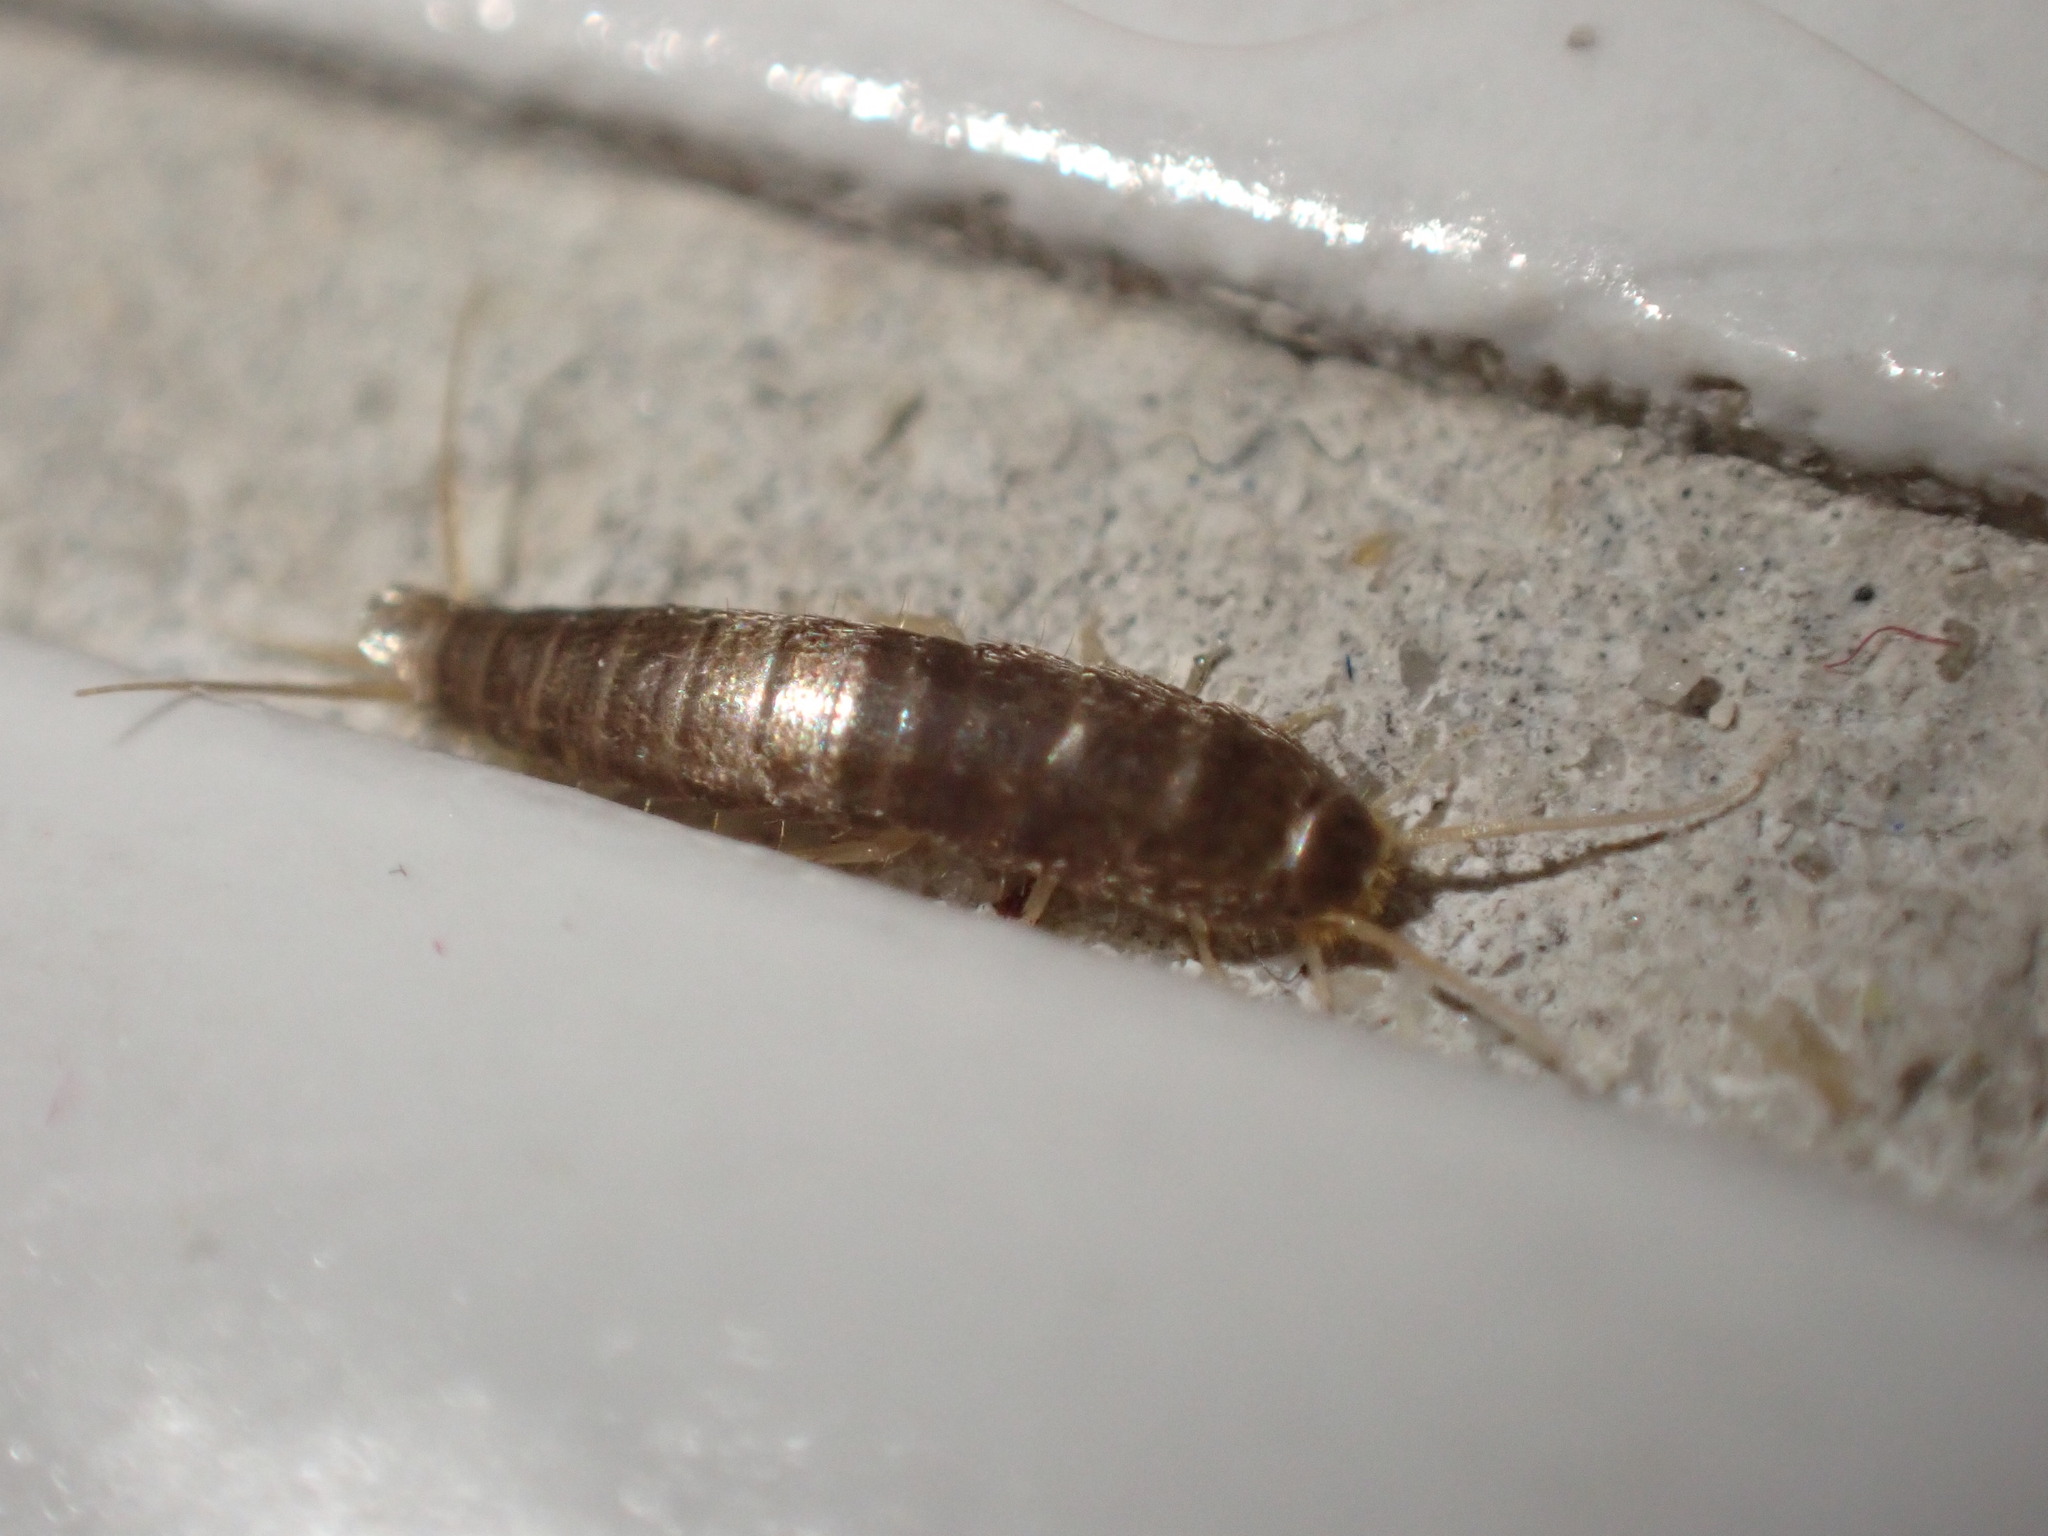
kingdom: Animalia
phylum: Arthropoda
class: Insecta
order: Zygentoma
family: Lepismatidae
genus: Lepisma
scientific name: Lepisma saccharinum
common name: Silverfish
